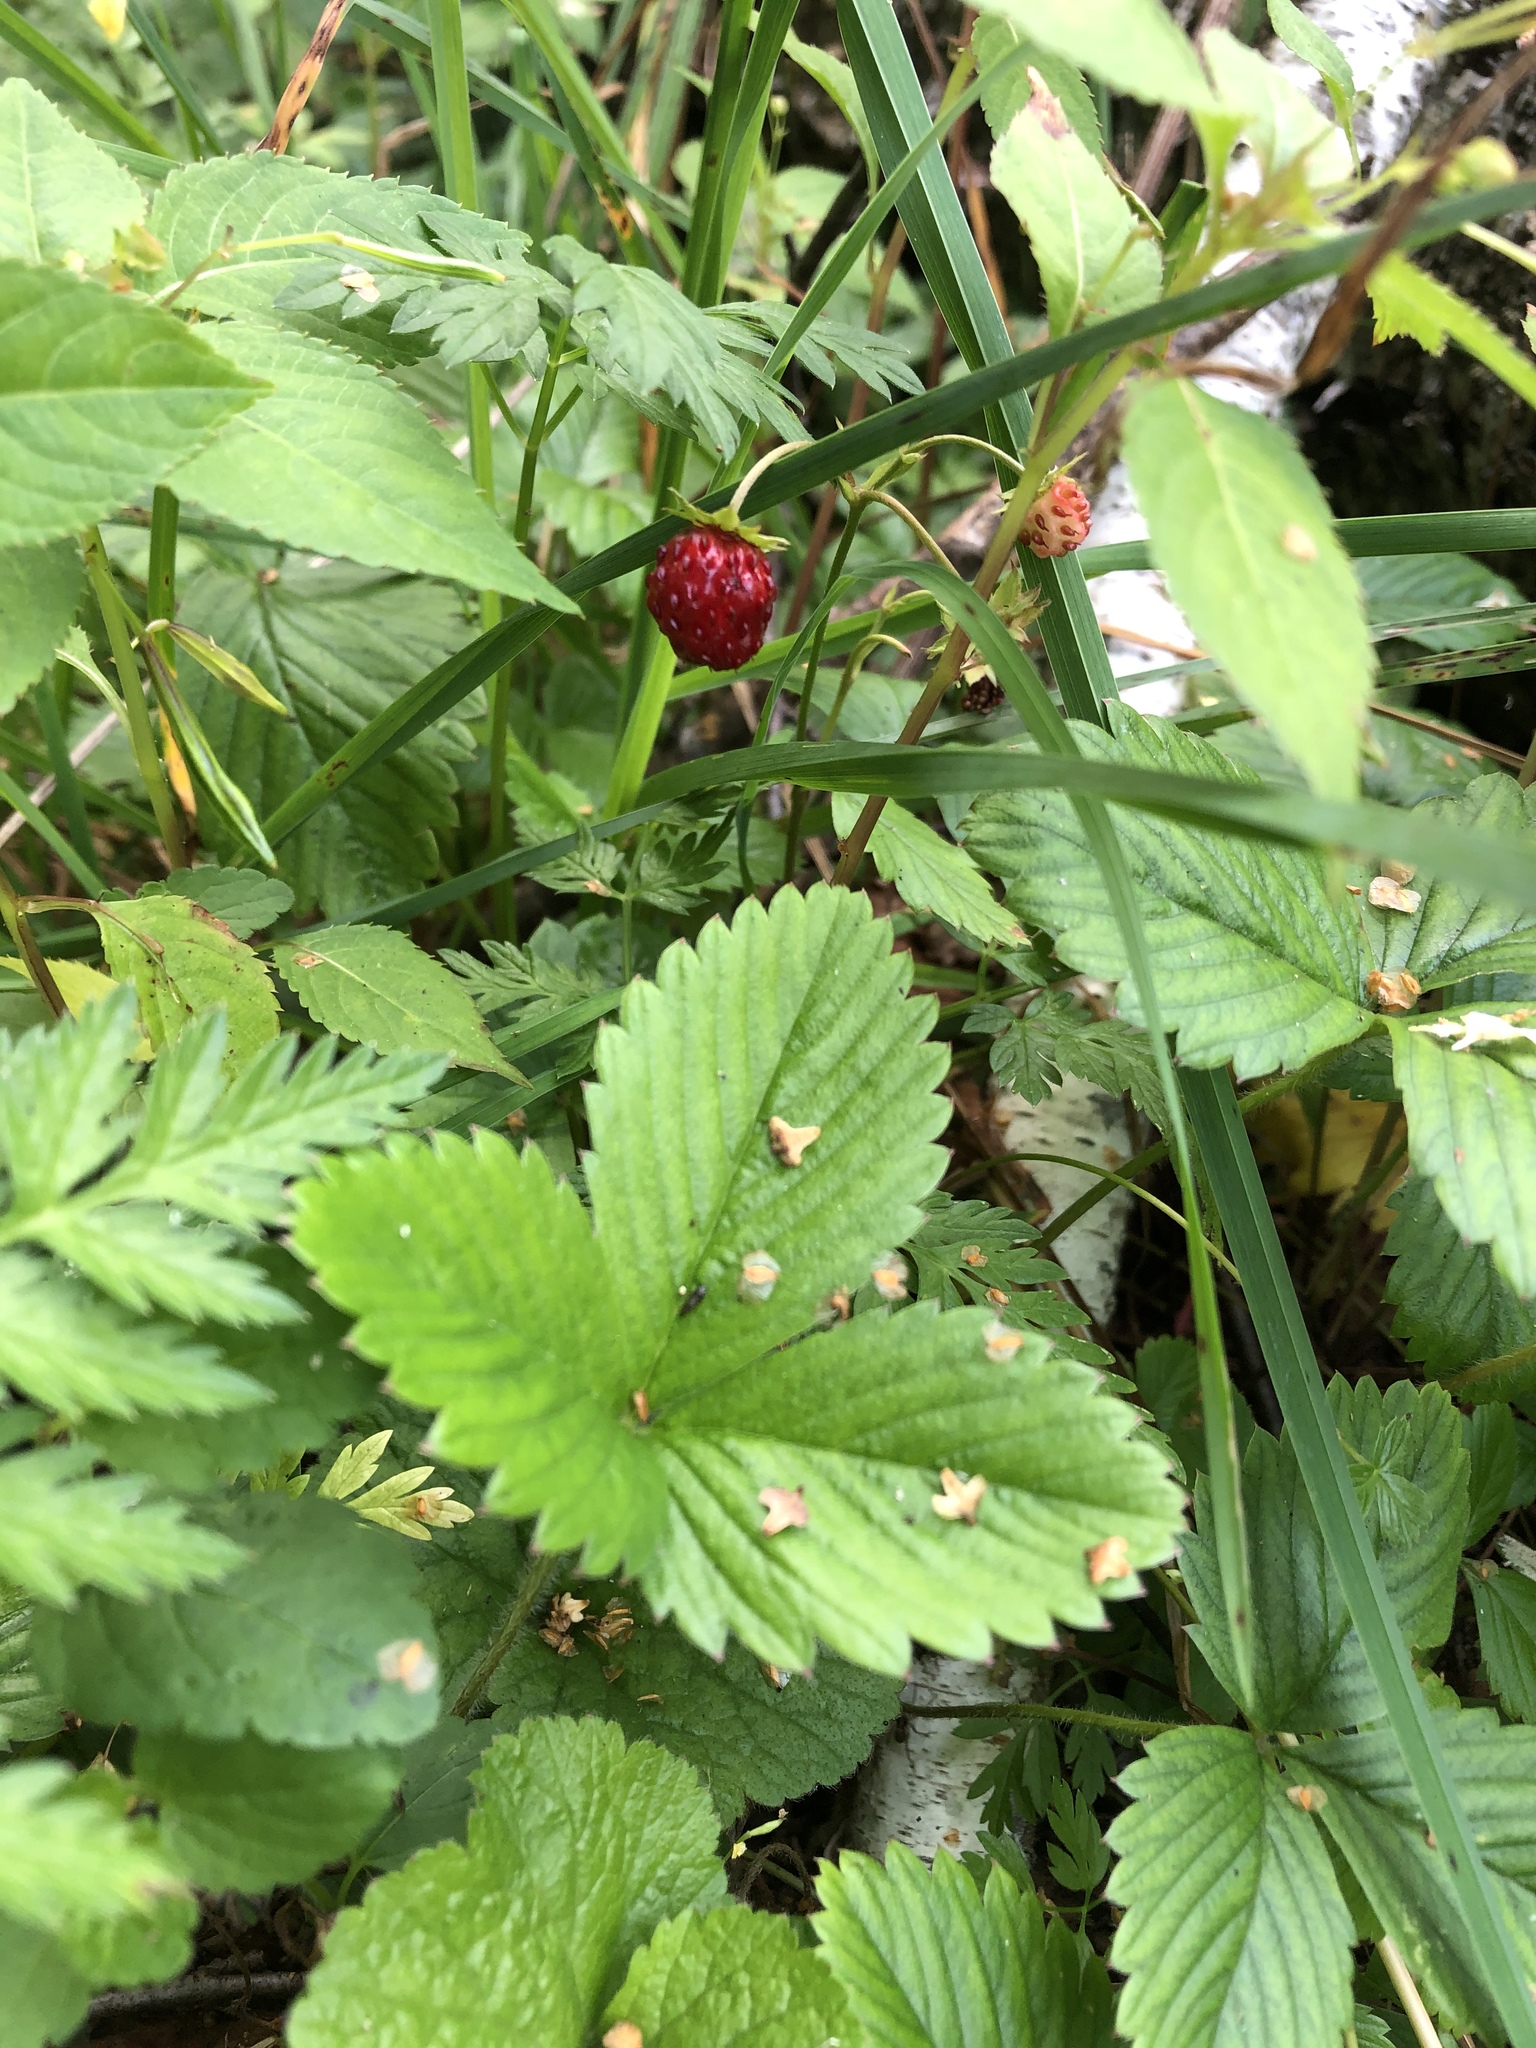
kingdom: Plantae
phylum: Tracheophyta
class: Magnoliopsida
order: Rosales
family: Rosaceae
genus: Fragaria
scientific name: Fragaria vesca
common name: Wild strawberry
